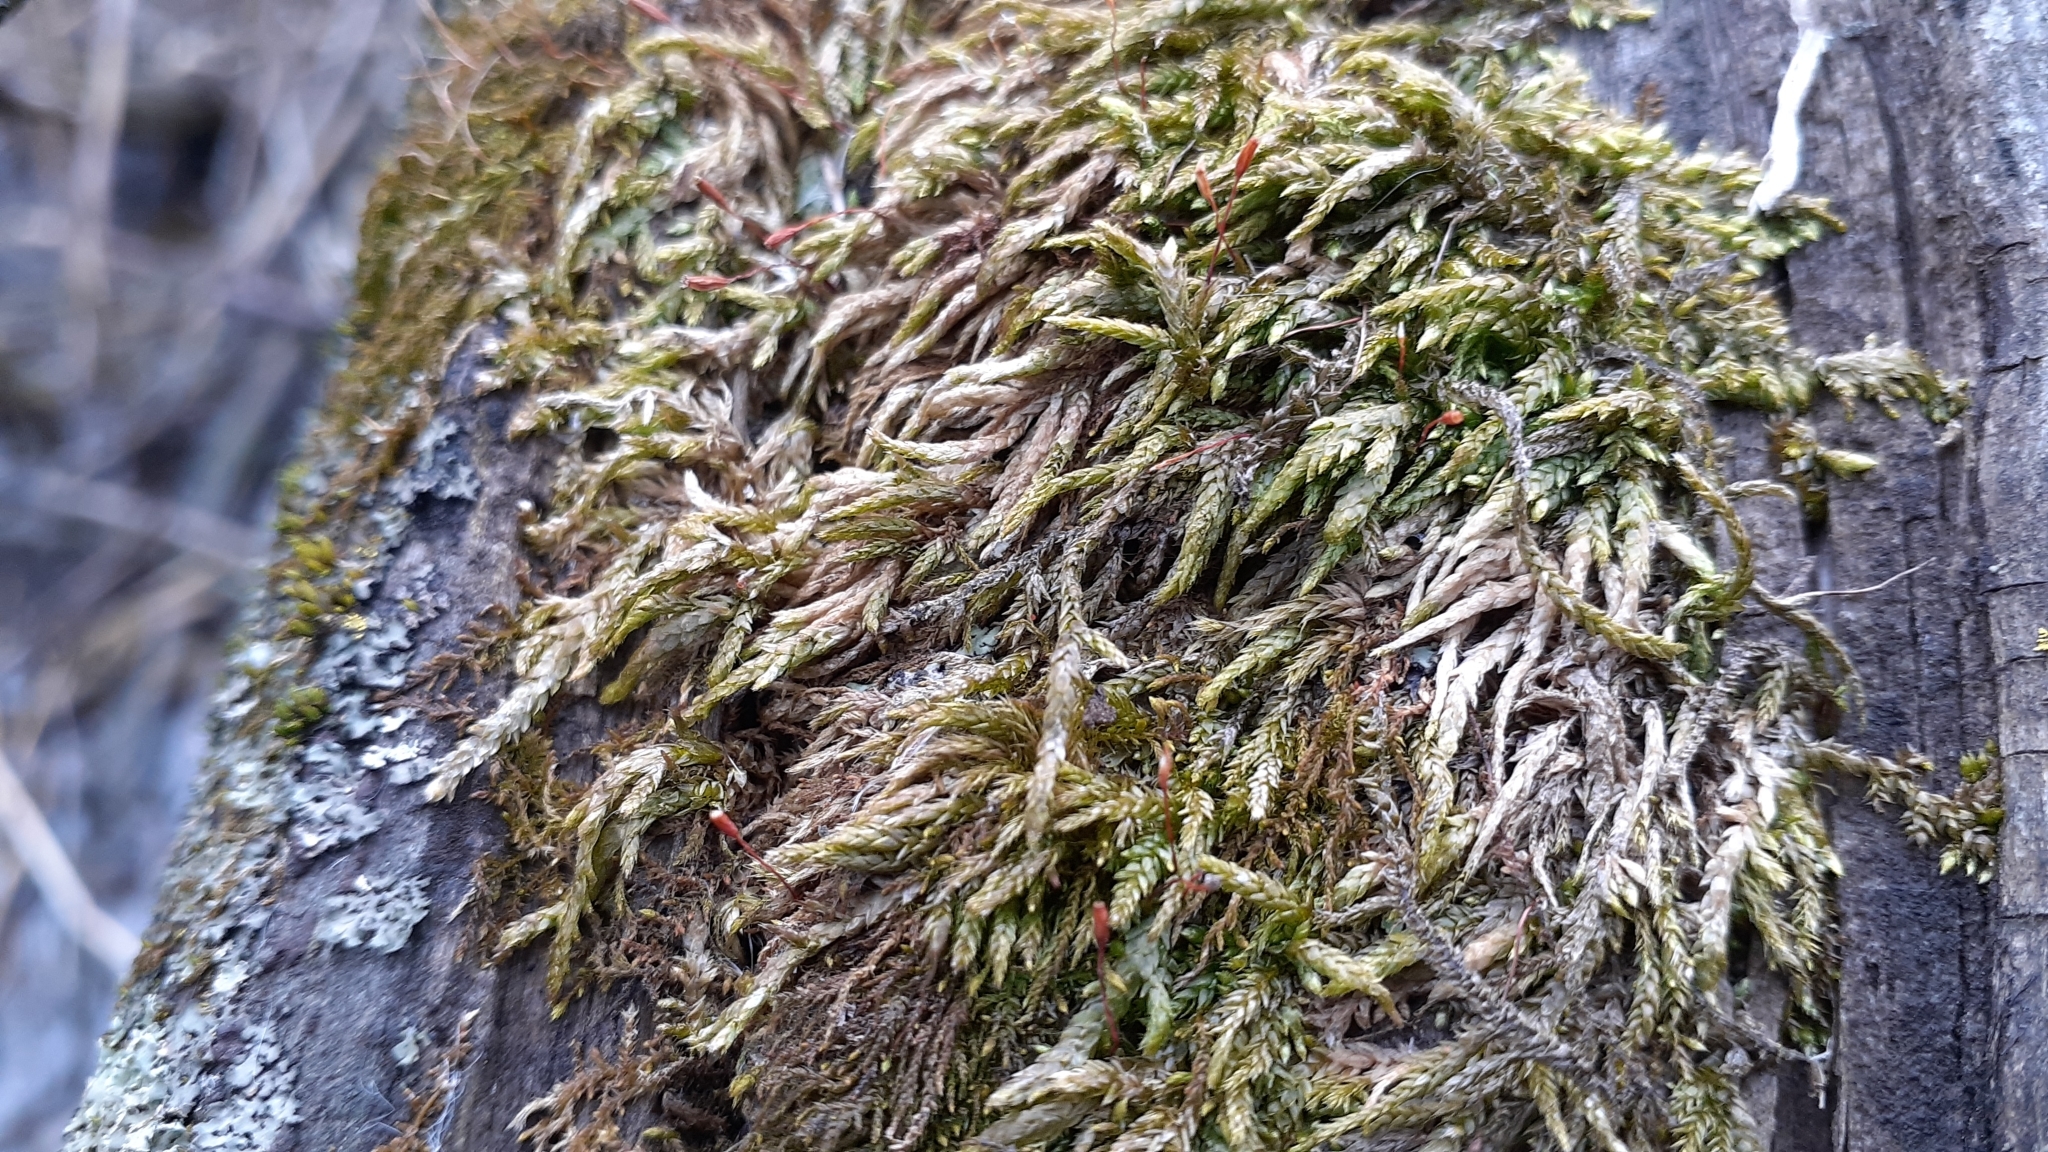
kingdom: Plantae
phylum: Bryophyta
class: Bryopsida
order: Hypnales
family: Entodontaceae
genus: Entodon
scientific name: Entodon seductrix
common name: Round-stemmed entodon moss
